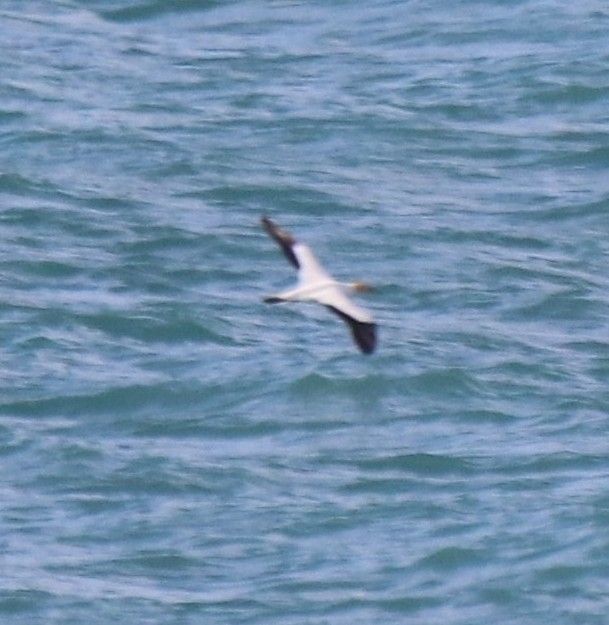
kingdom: Animalia
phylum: Chordata
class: Aves
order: Suliformes
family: Sulidae
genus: Morus
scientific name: Morus serrator
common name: Australasian gannet
